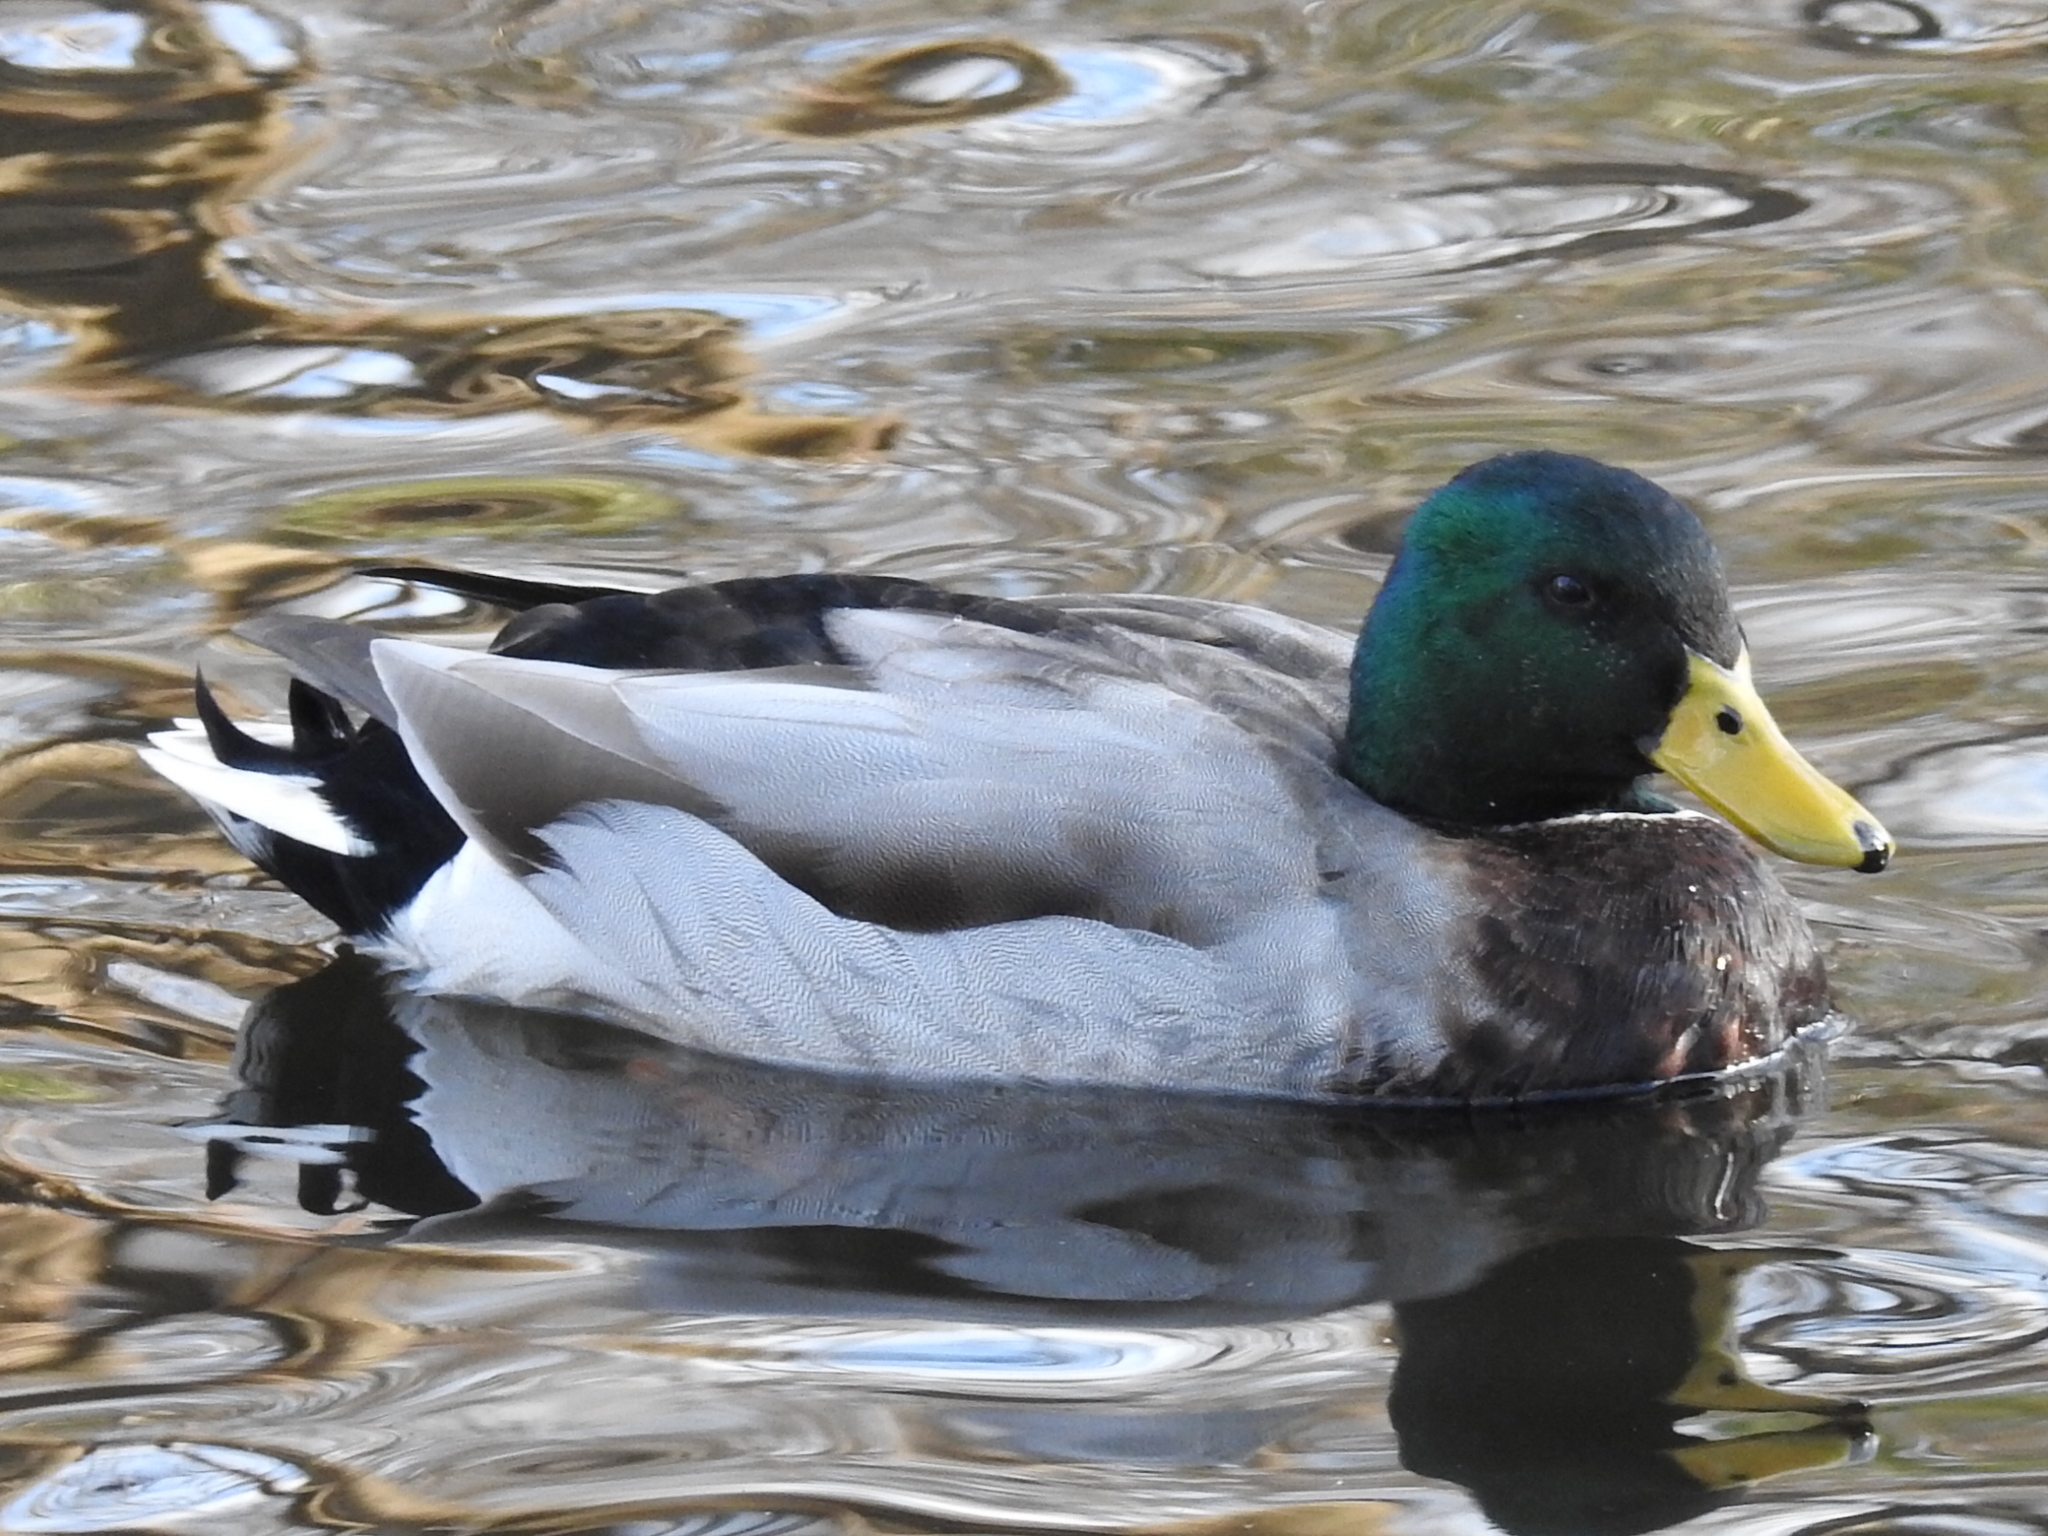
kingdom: Animalia
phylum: Chordata
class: Aves
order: Anseriformes
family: Anatidae
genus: Anas
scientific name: Anas platyrhynchos
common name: Mallard
